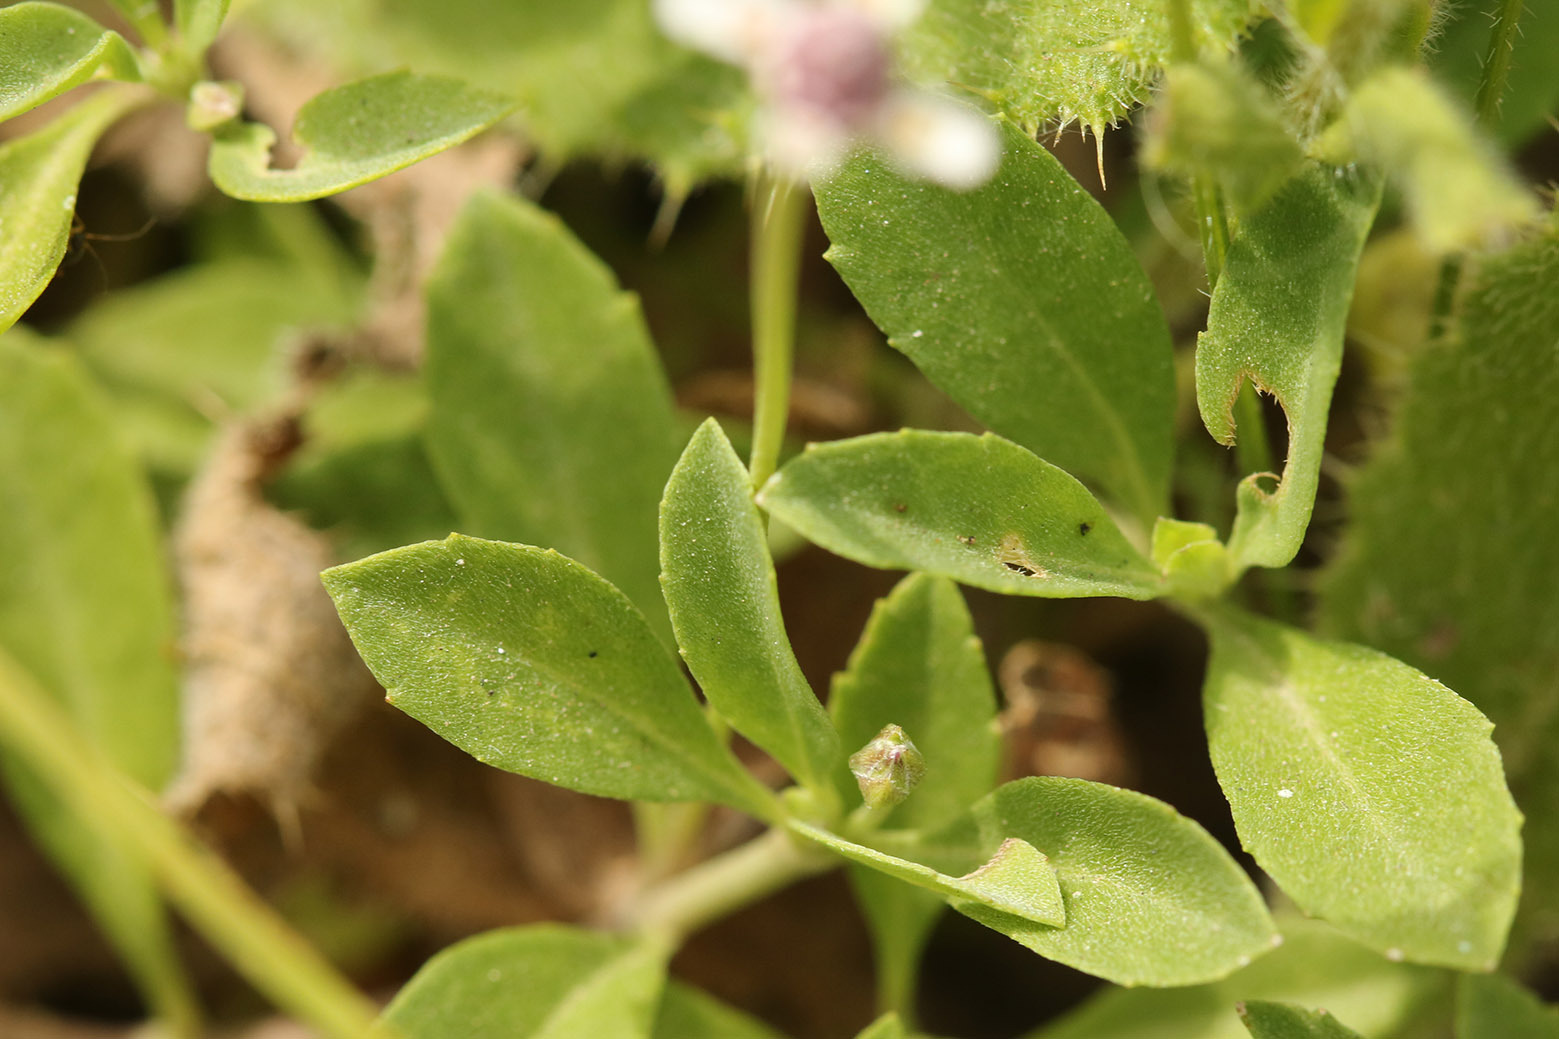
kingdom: Plantae
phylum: Tracheophyta
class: Magnoliopsida
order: Lamiales
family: Verbenaceae
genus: Phyla
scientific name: Phyla nodiflora
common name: Frogfruit
